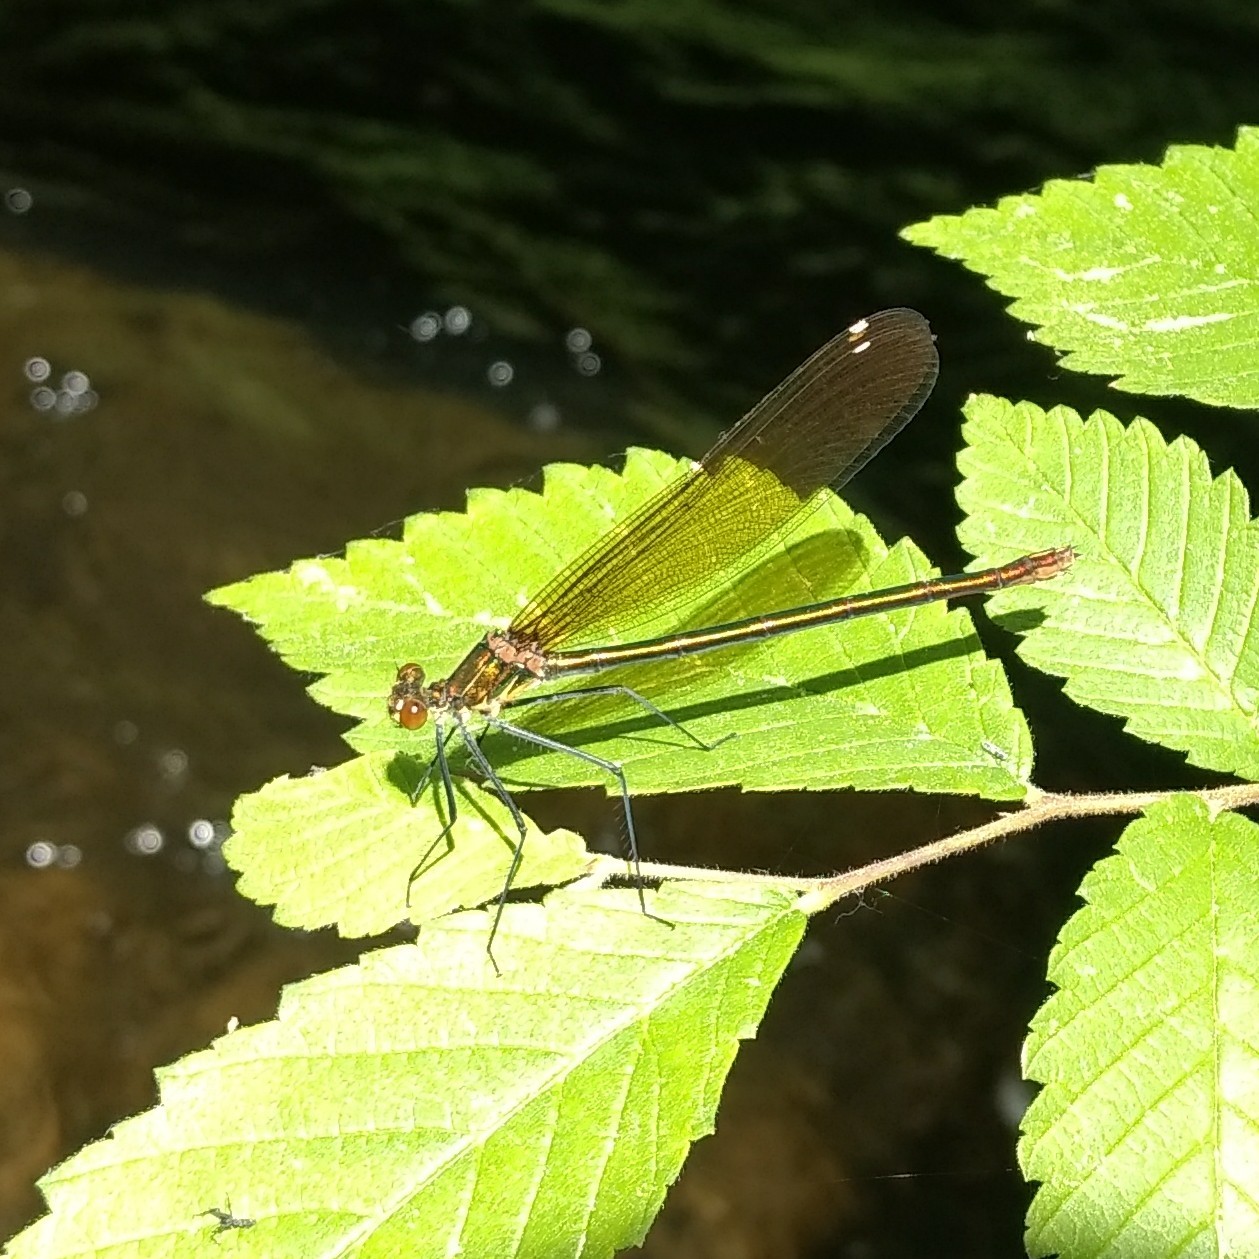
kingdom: Animalia
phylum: Arthropoda
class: Insecta
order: Odonata
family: Calopterygidae
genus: Calopteryx
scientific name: Calopteryx amata
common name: Superb jewelwing
